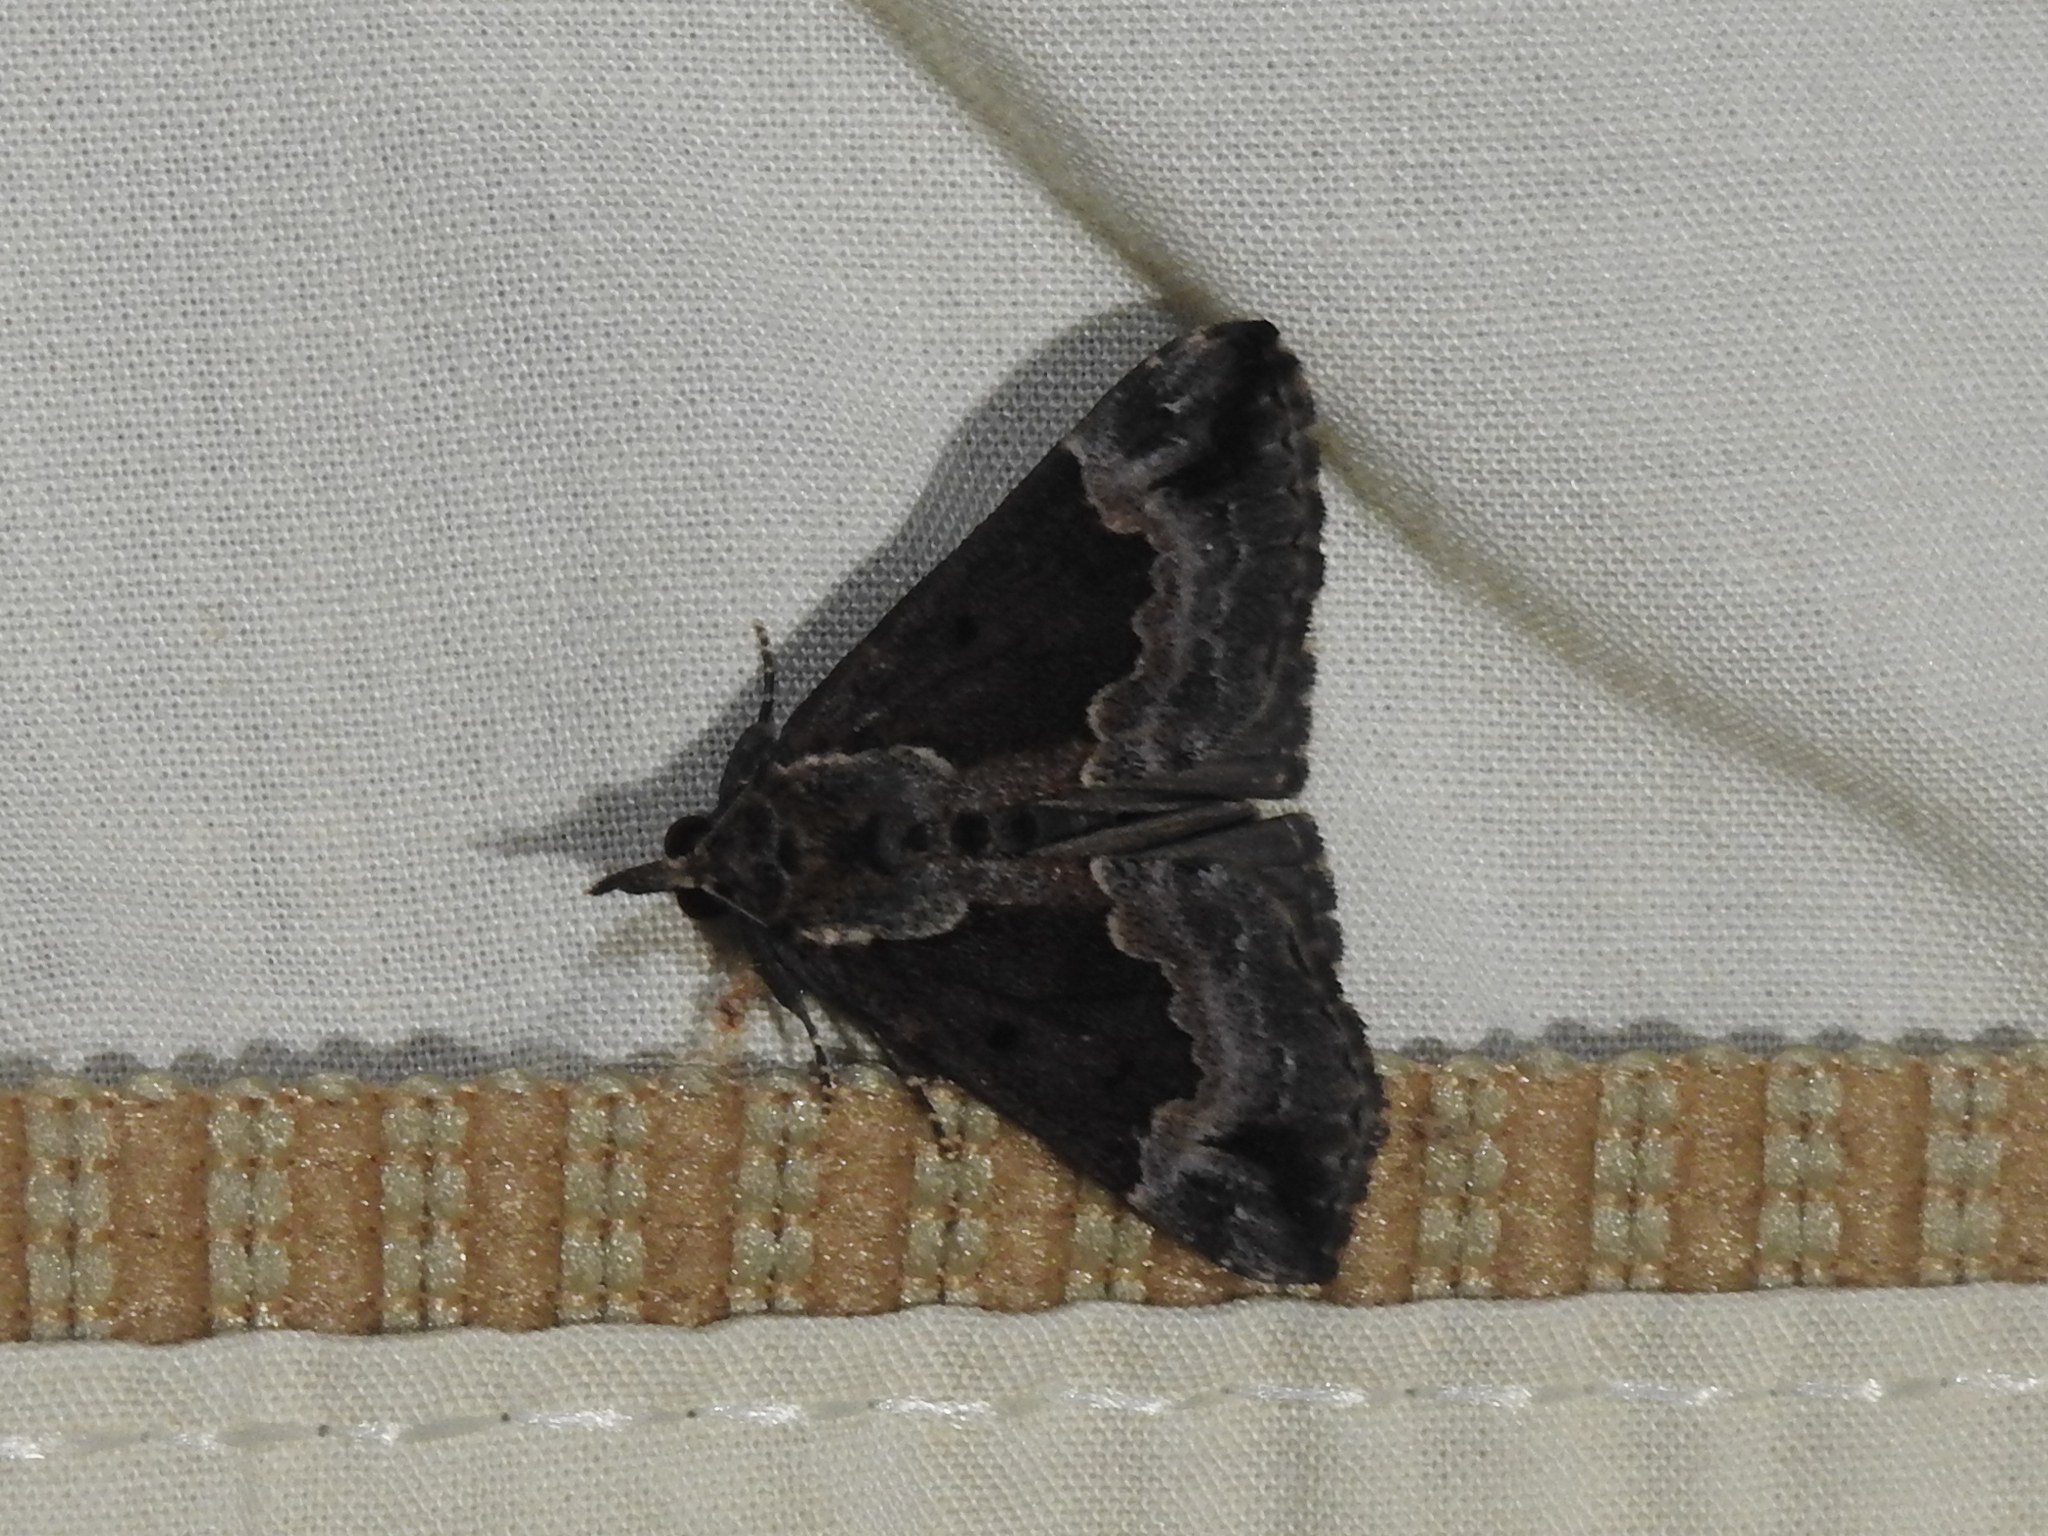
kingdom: Animalia
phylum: Arthropoda
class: Insecta
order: Lepidoptera
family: Erebidae
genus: Hypena
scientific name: Hypena baltimoralis
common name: Baltimore snout
